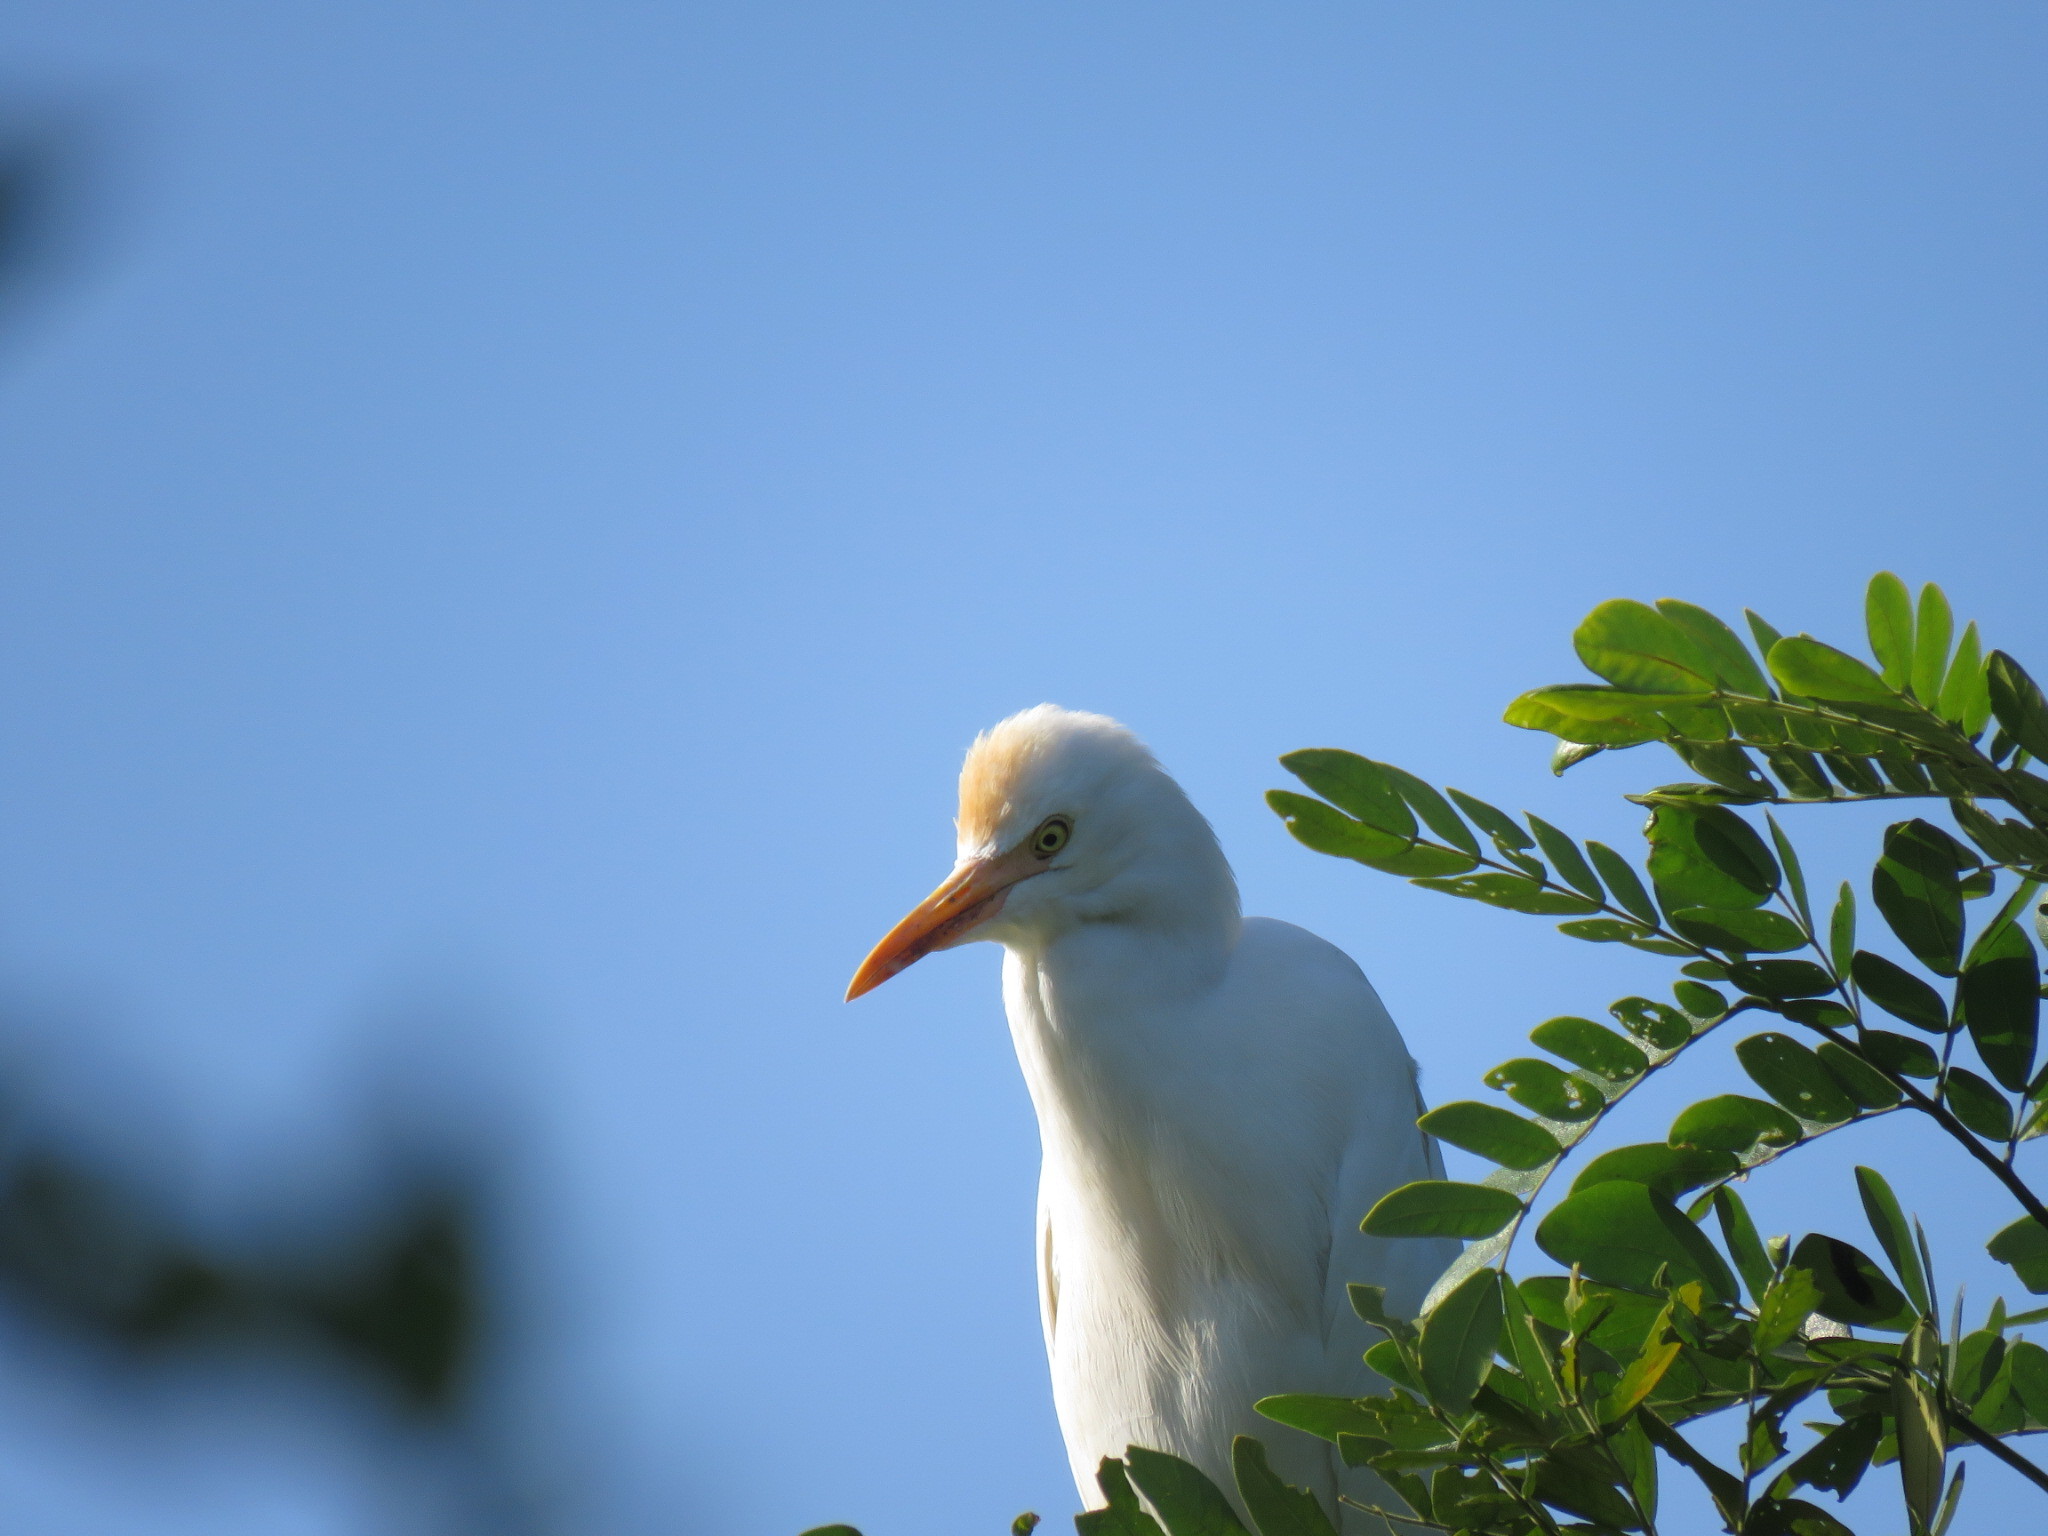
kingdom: Animalia
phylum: Chordata
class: Aves
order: Pelecaniformes
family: Ardeidae
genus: Bubulcus
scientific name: Bubulcus coromandus
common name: Eastern cattle egret
